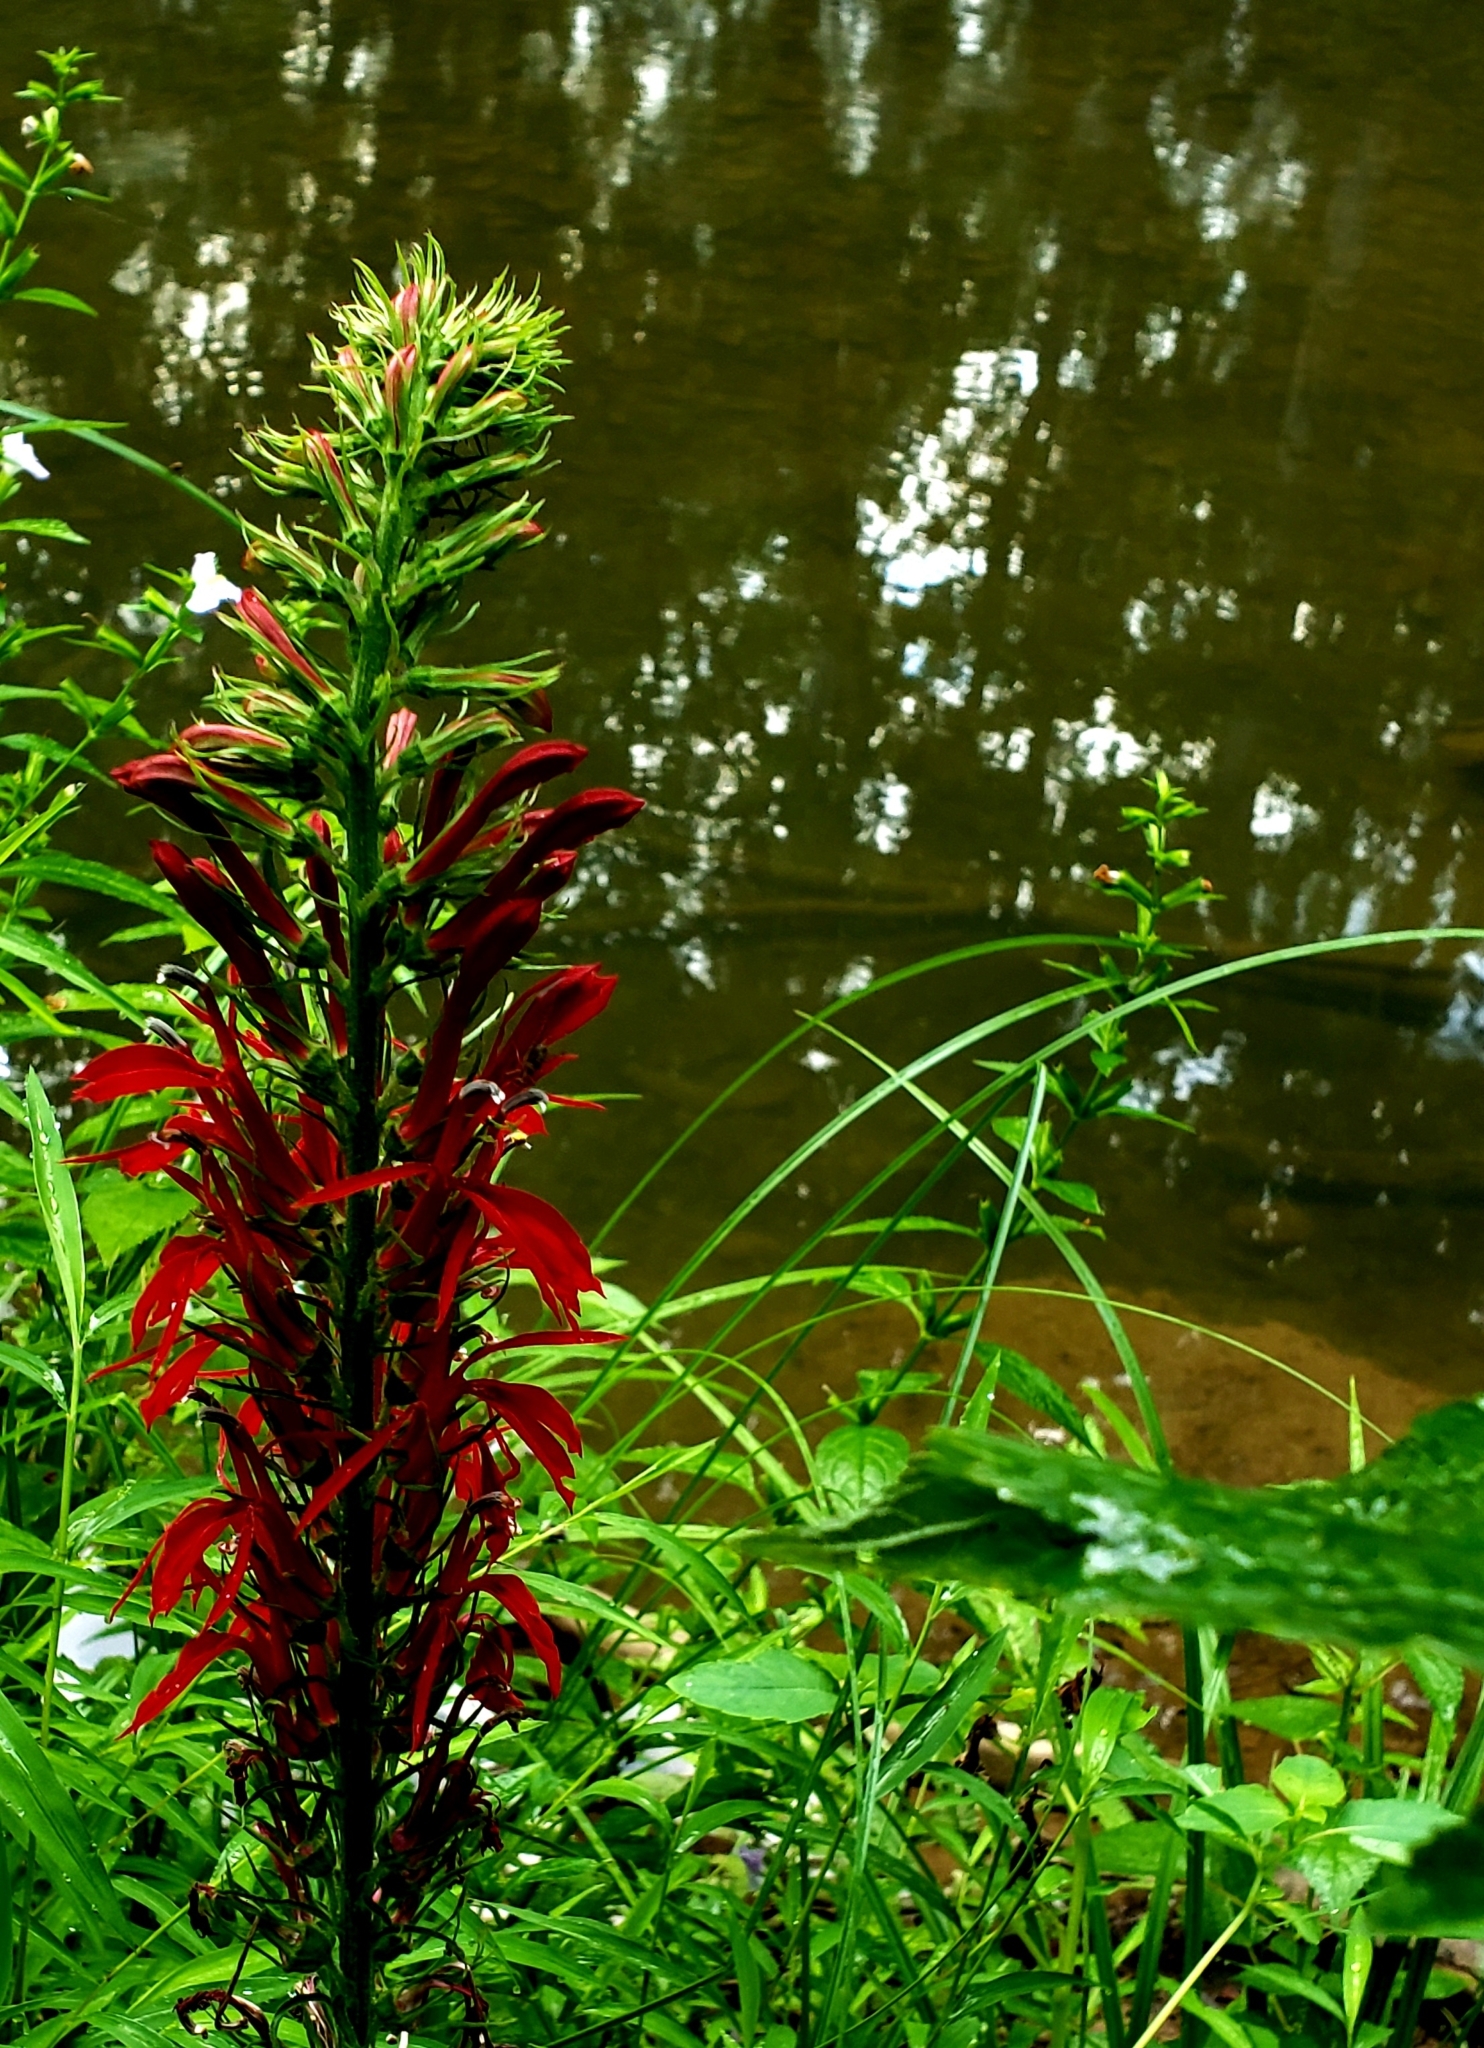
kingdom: Plantae
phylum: Tracheophyta
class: Magnoliopsida
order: Asterales
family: Campanulaceae
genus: Lobelia
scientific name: Lobelia cardinalis
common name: Cardinal flower
